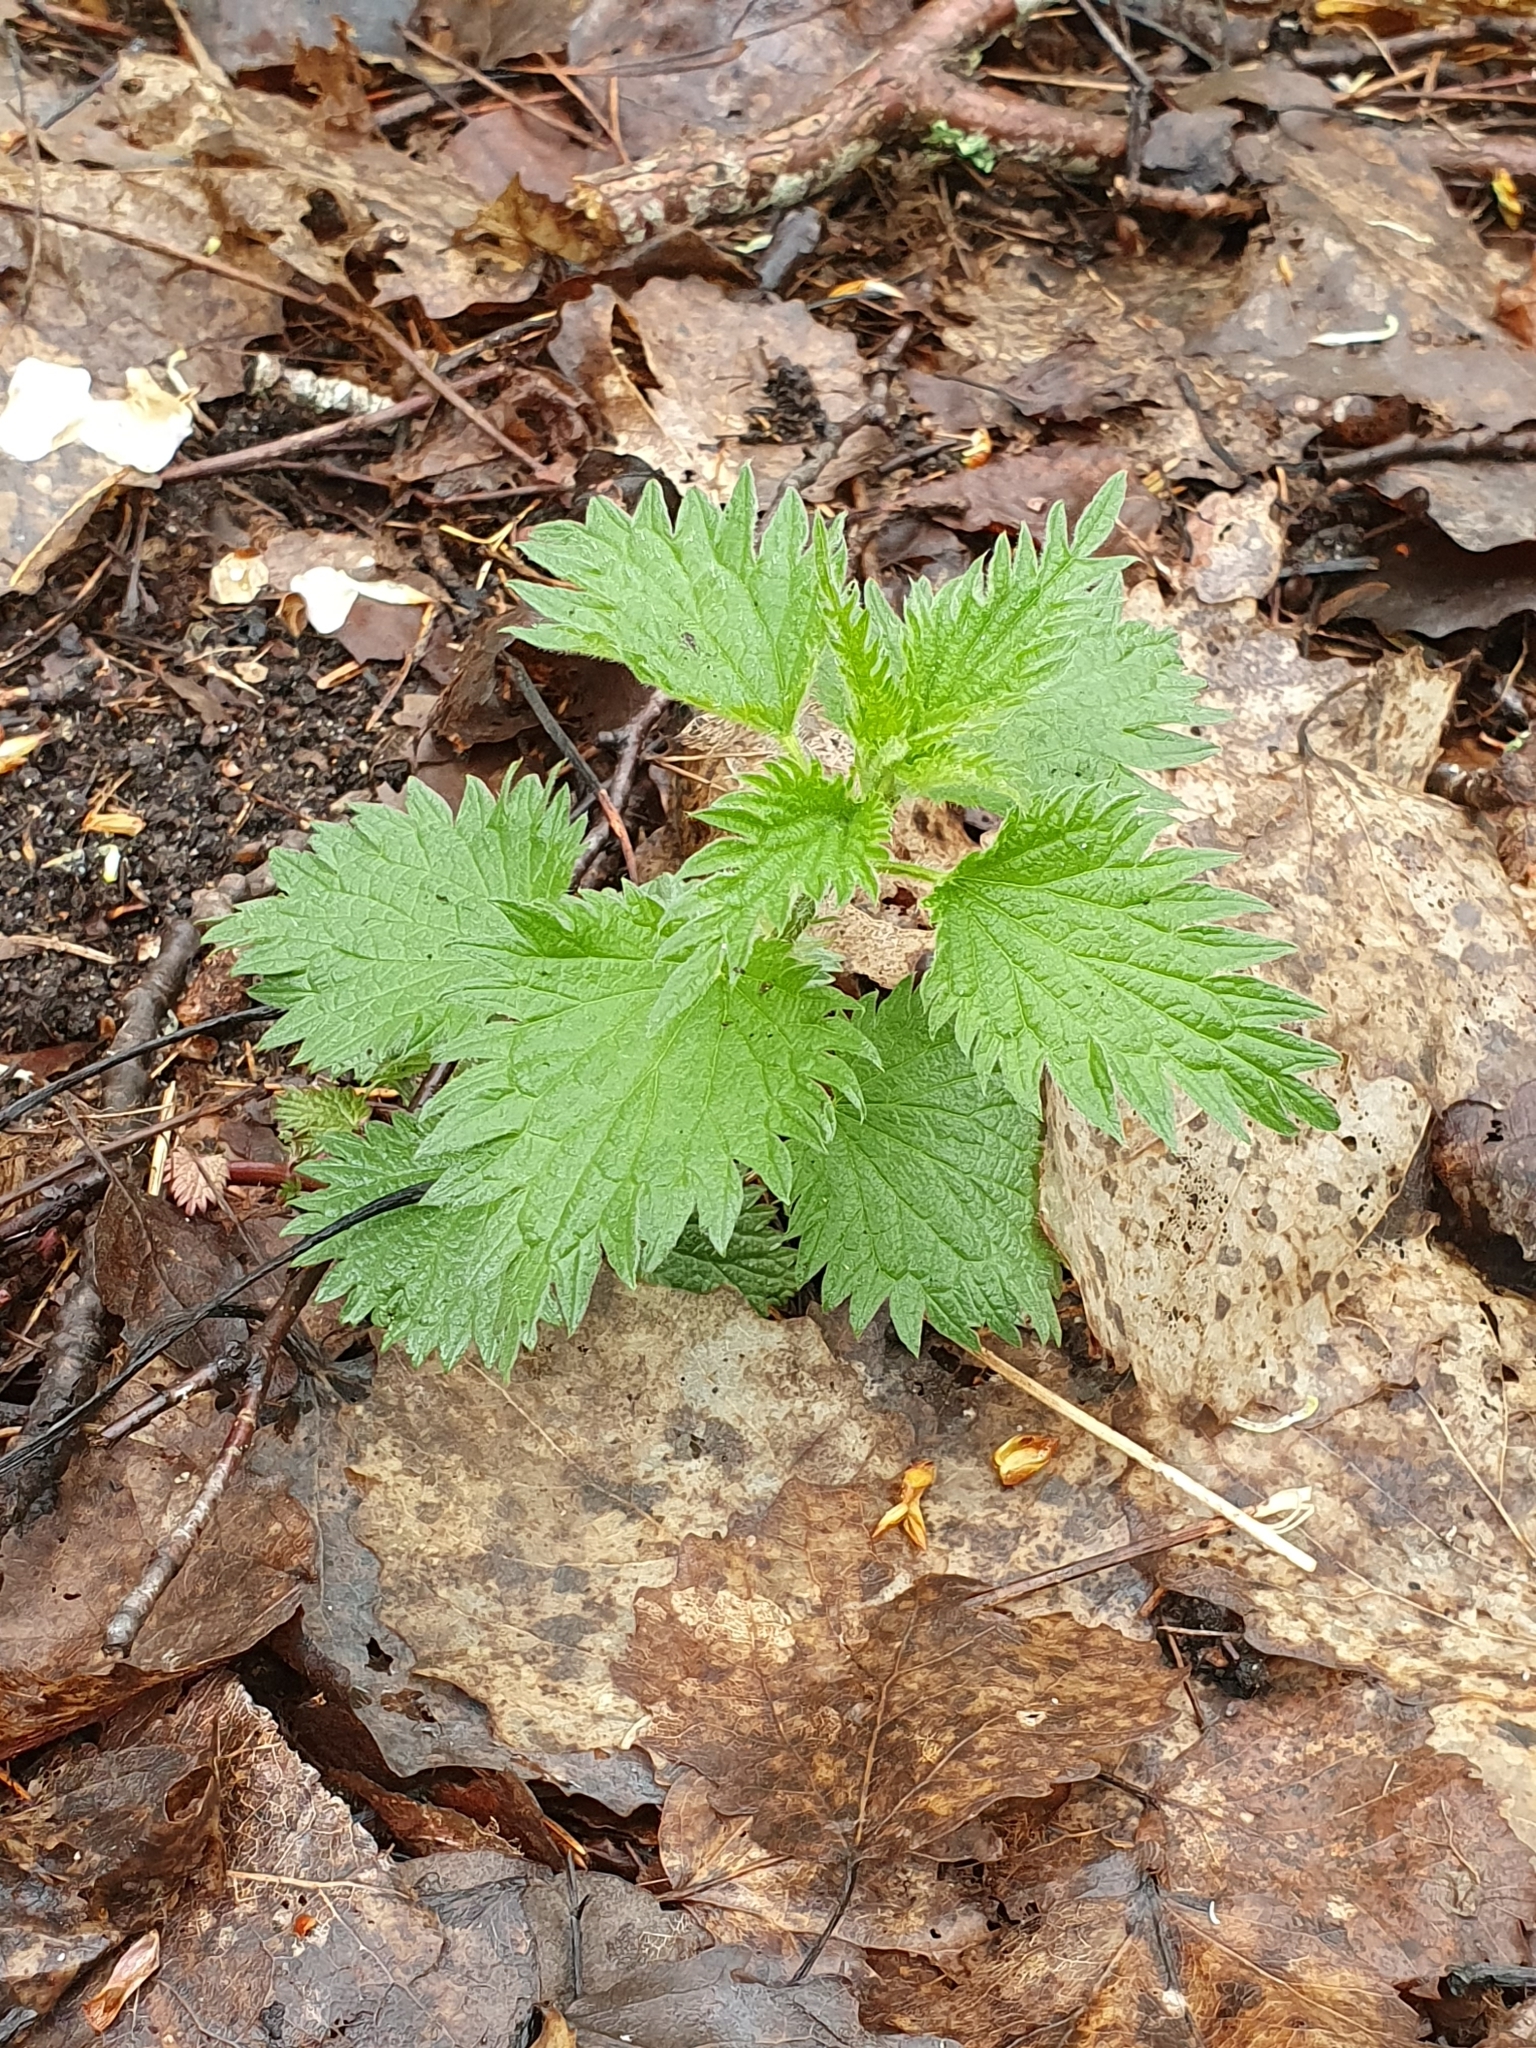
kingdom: Plantae
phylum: Tracheophyta
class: Magnoliopsida
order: Rosales
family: Urticaceae
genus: Urtica
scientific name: Urtica dioica
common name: Common nettle
